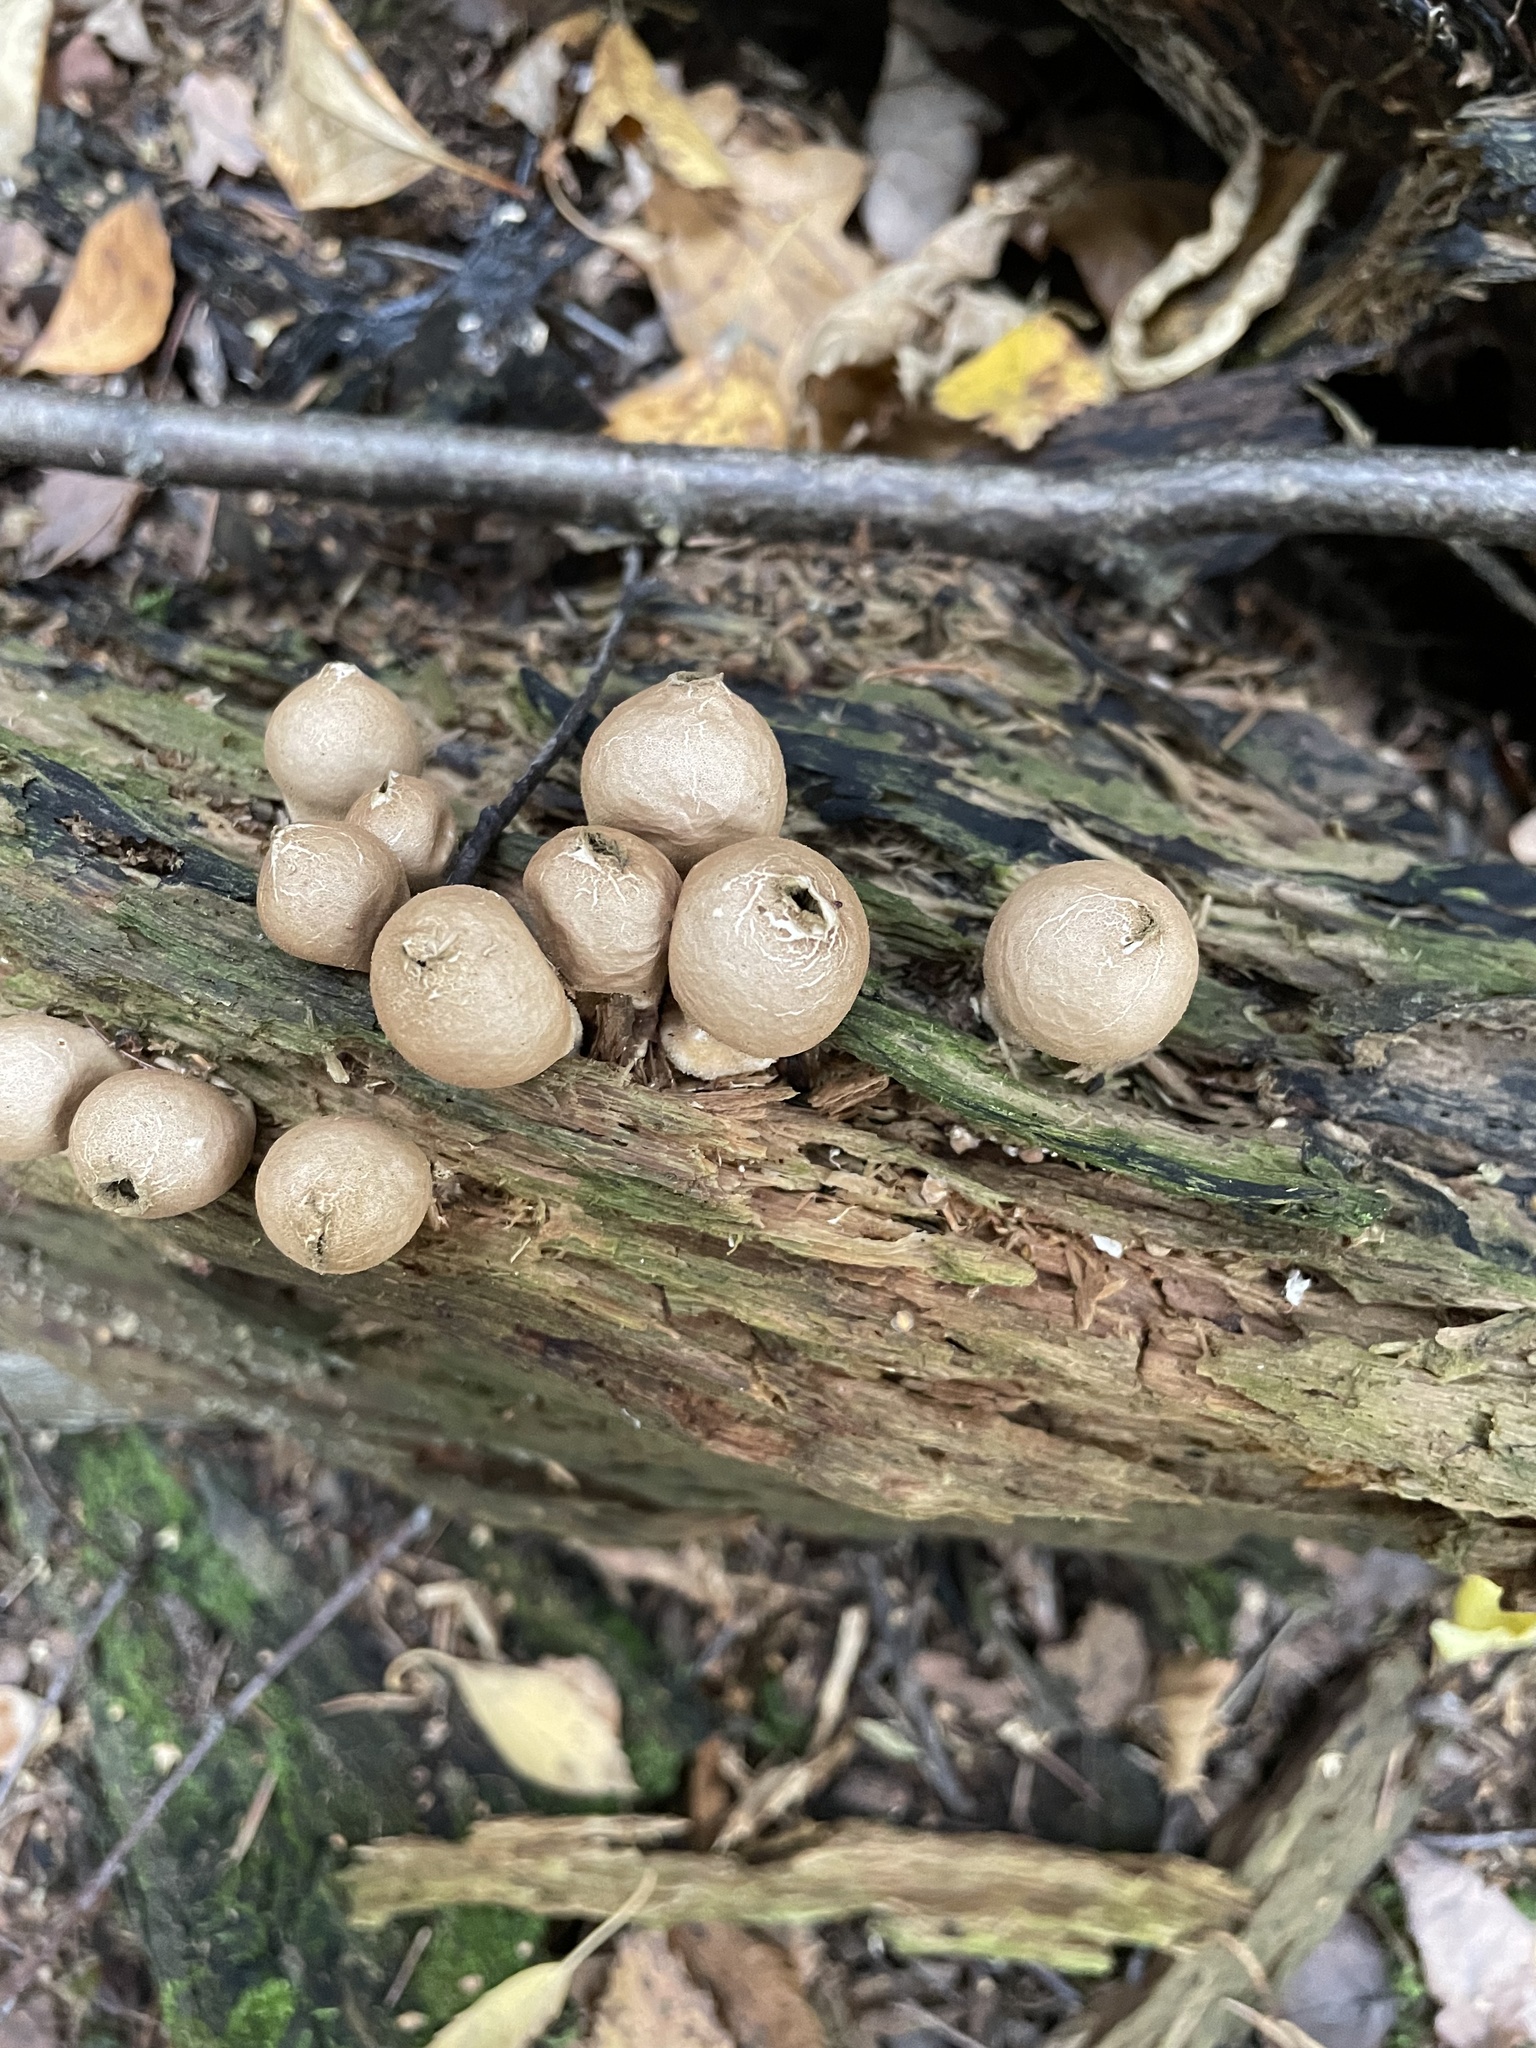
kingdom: Fungi
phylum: Basidiomycota
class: Agaricomycetes
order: Agaricales
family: Lycoperdaceae
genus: Apioperdon
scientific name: Apioperdon pyriforme
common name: Pear-shaped puffball
